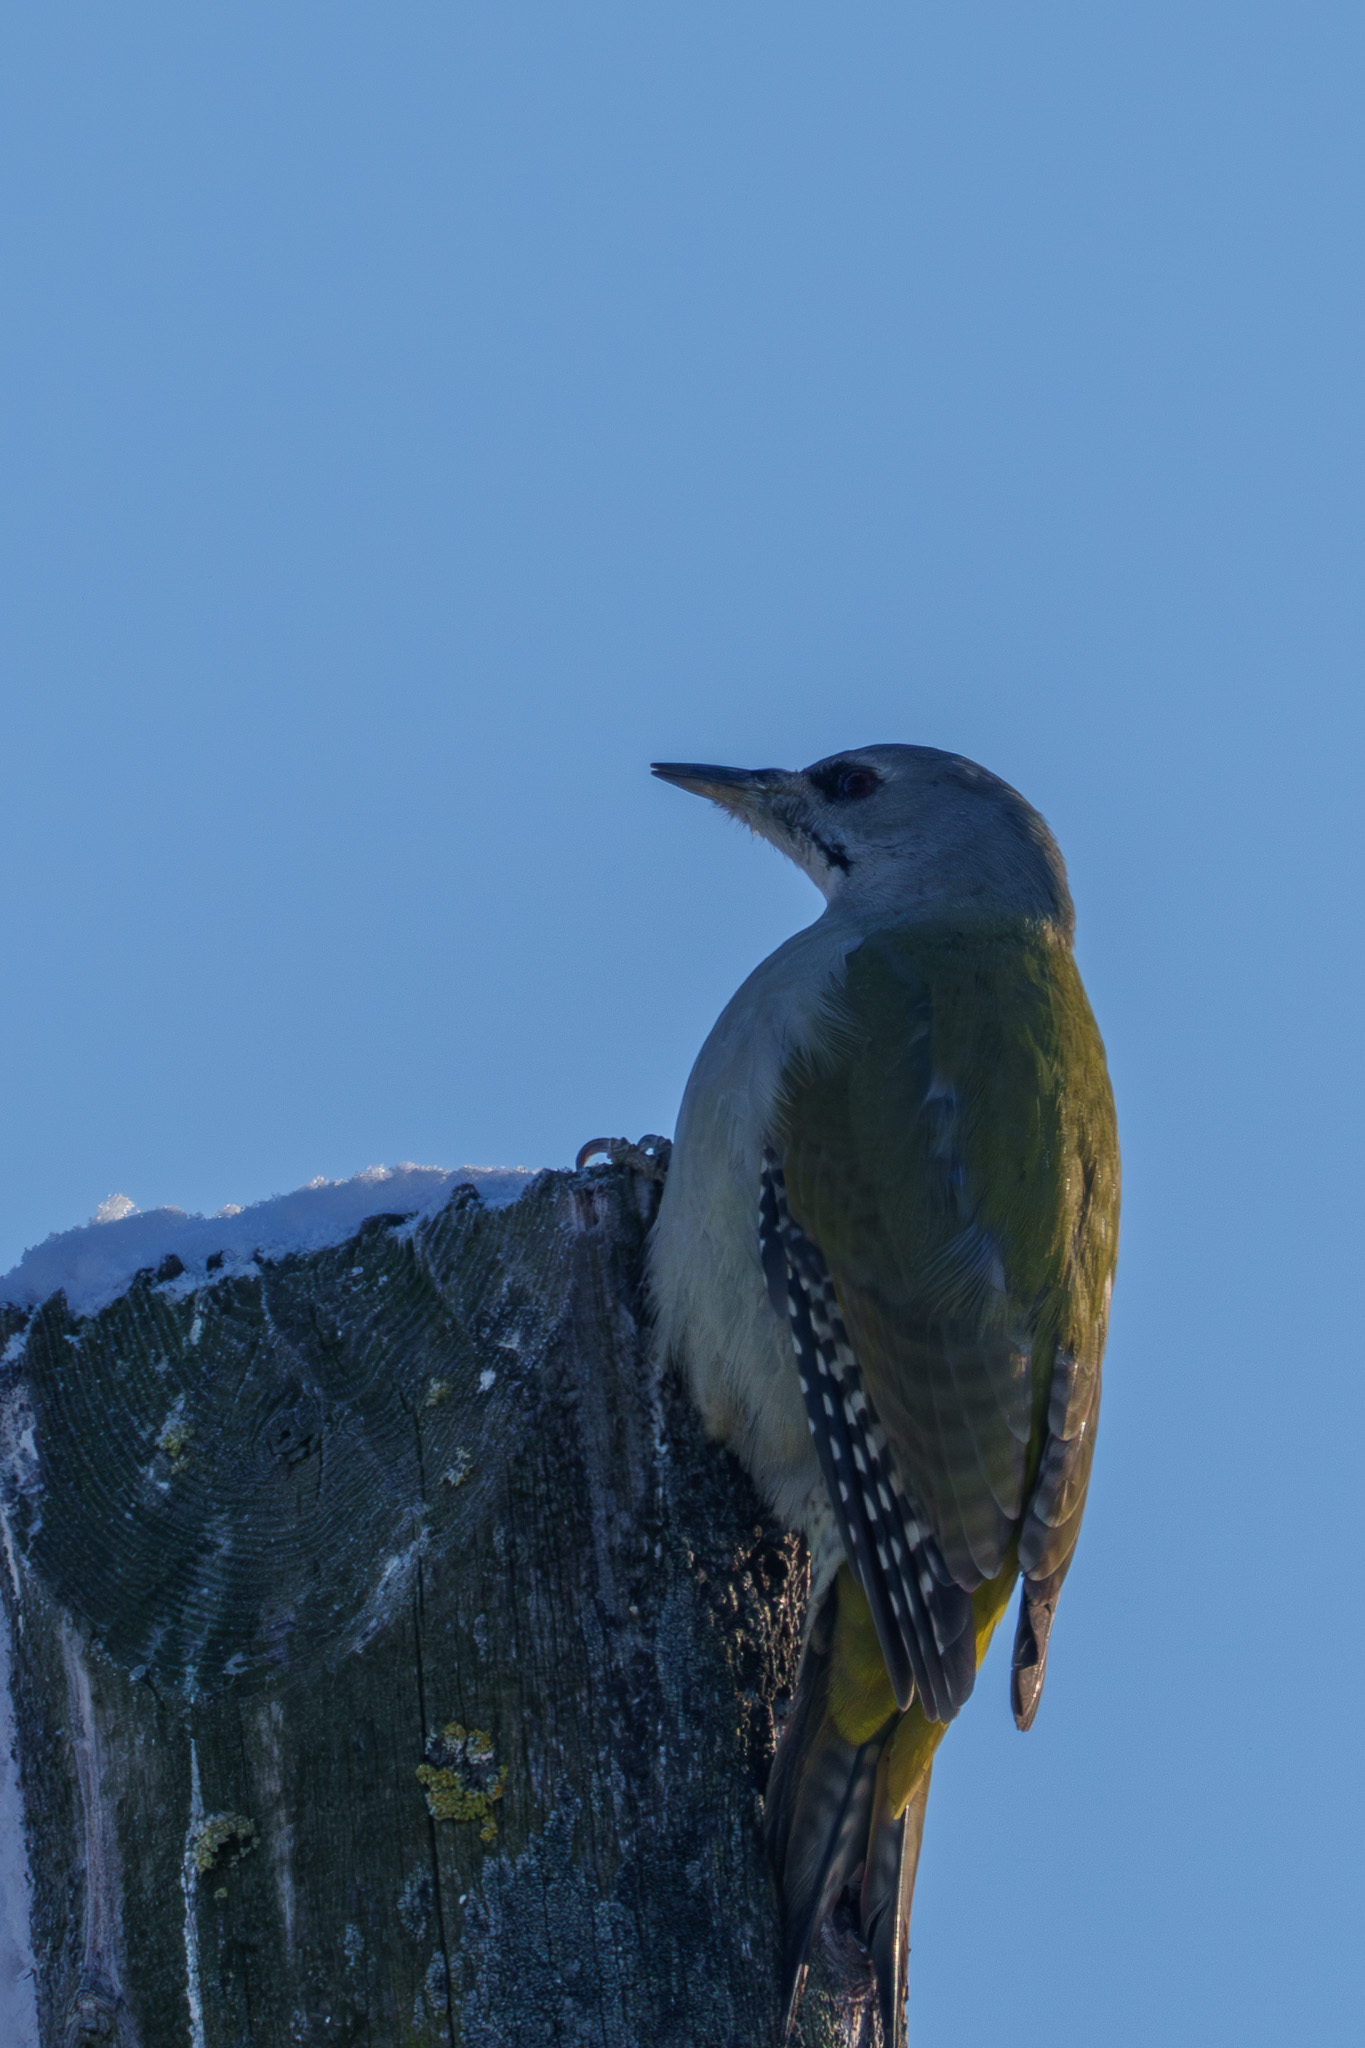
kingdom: Animalia
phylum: Chordata
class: Aves
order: Piciformes
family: Picidae
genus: Picus
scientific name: Picus canus
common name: Grey-headed woodpecker
